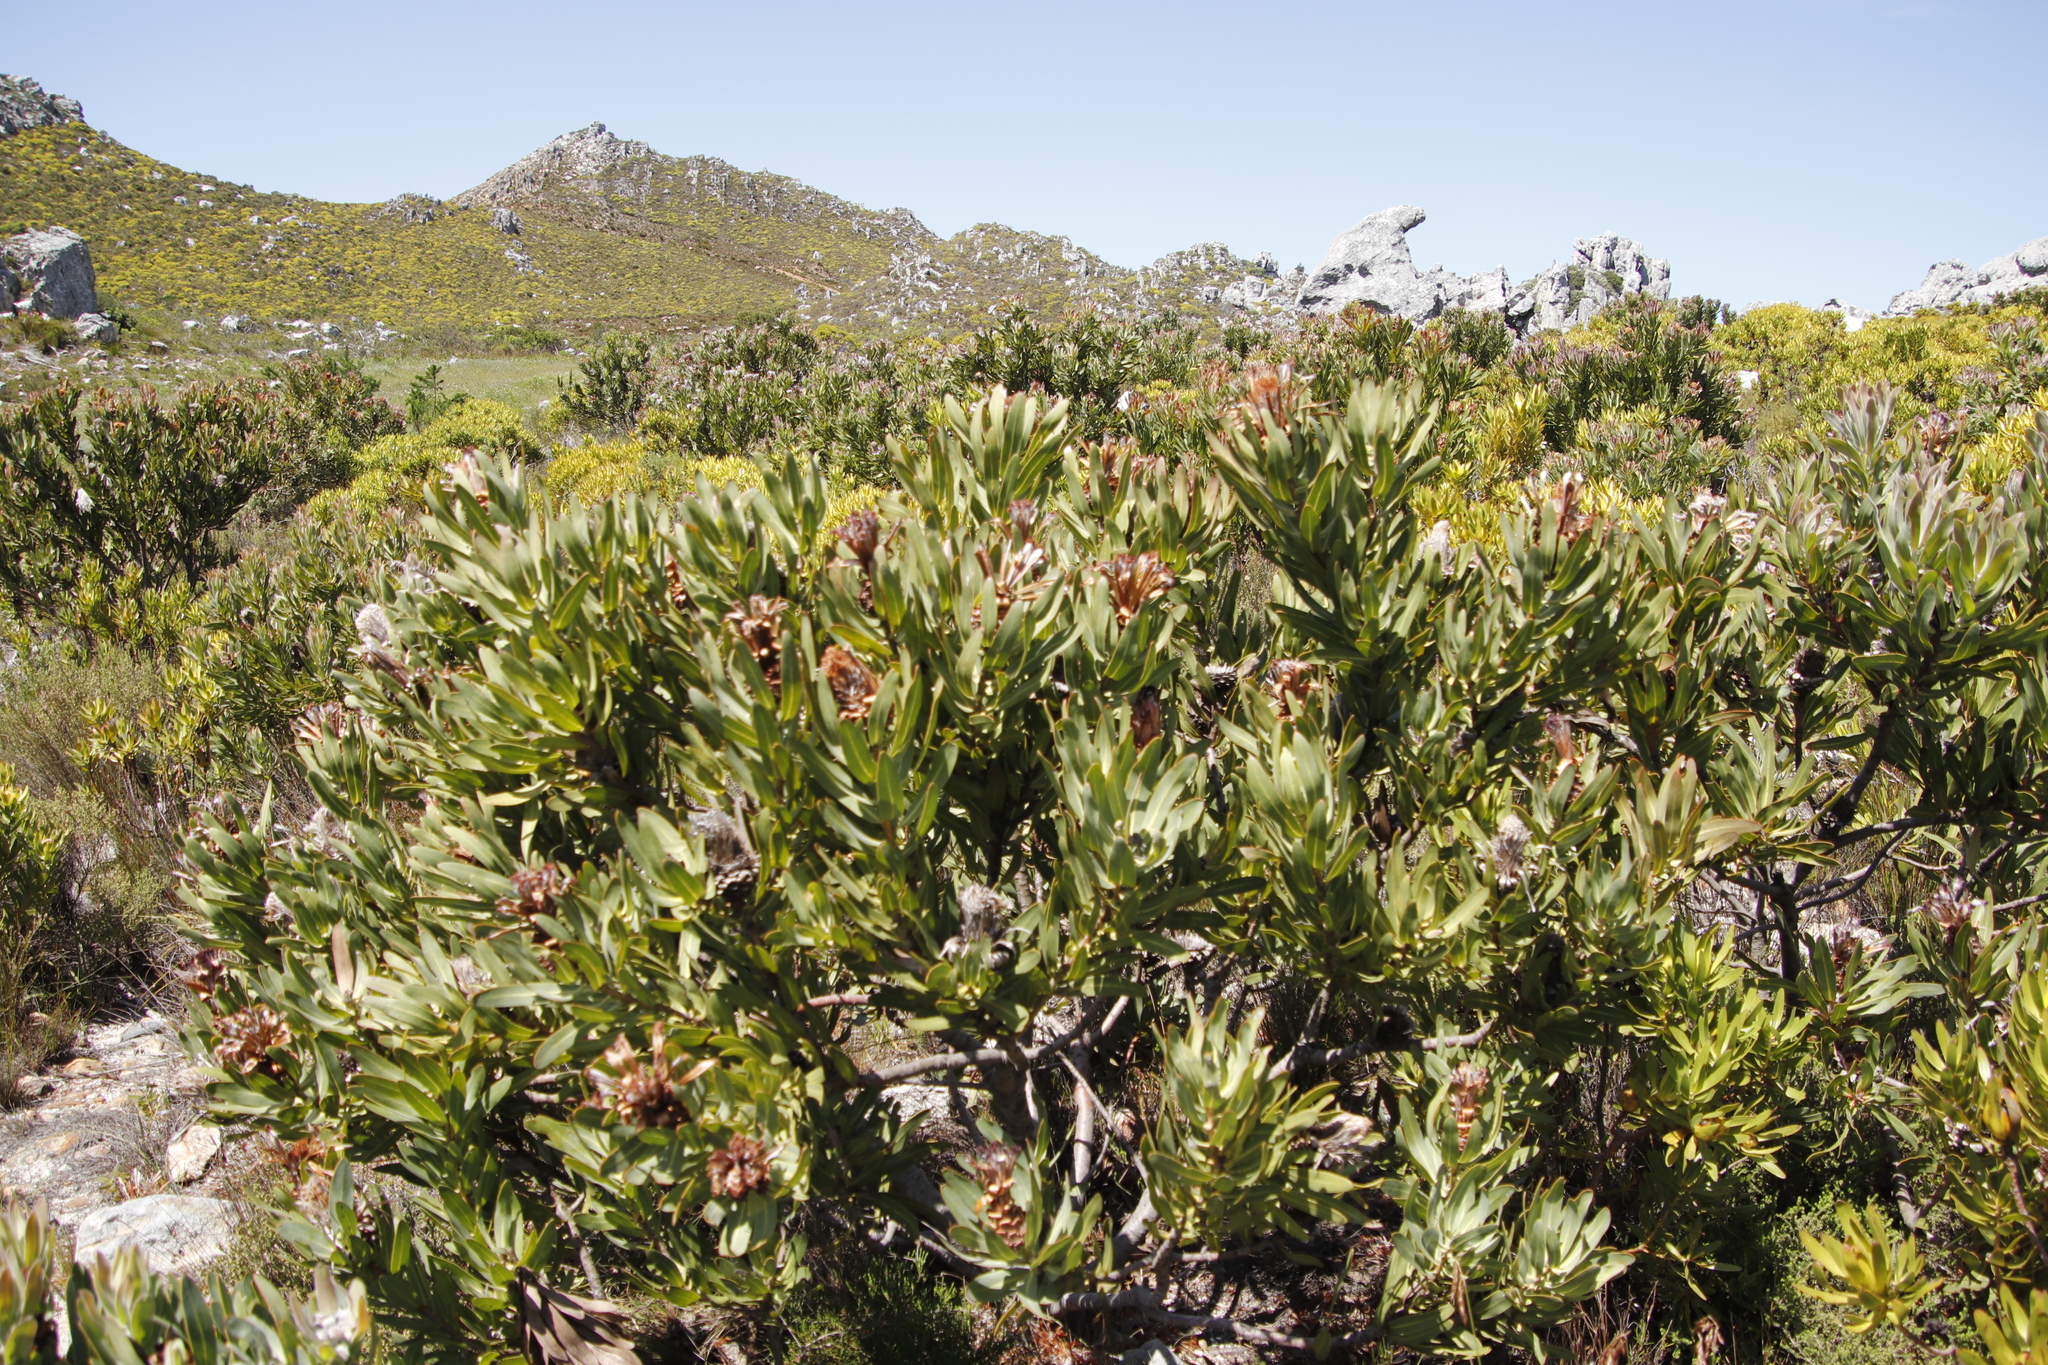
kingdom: Plantae
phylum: Tracheophyta
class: Magnoliopsida
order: Proteales
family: Proteaceae
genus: Protea
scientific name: Protea laurifolia
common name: Grey-leaf sugarbsh
